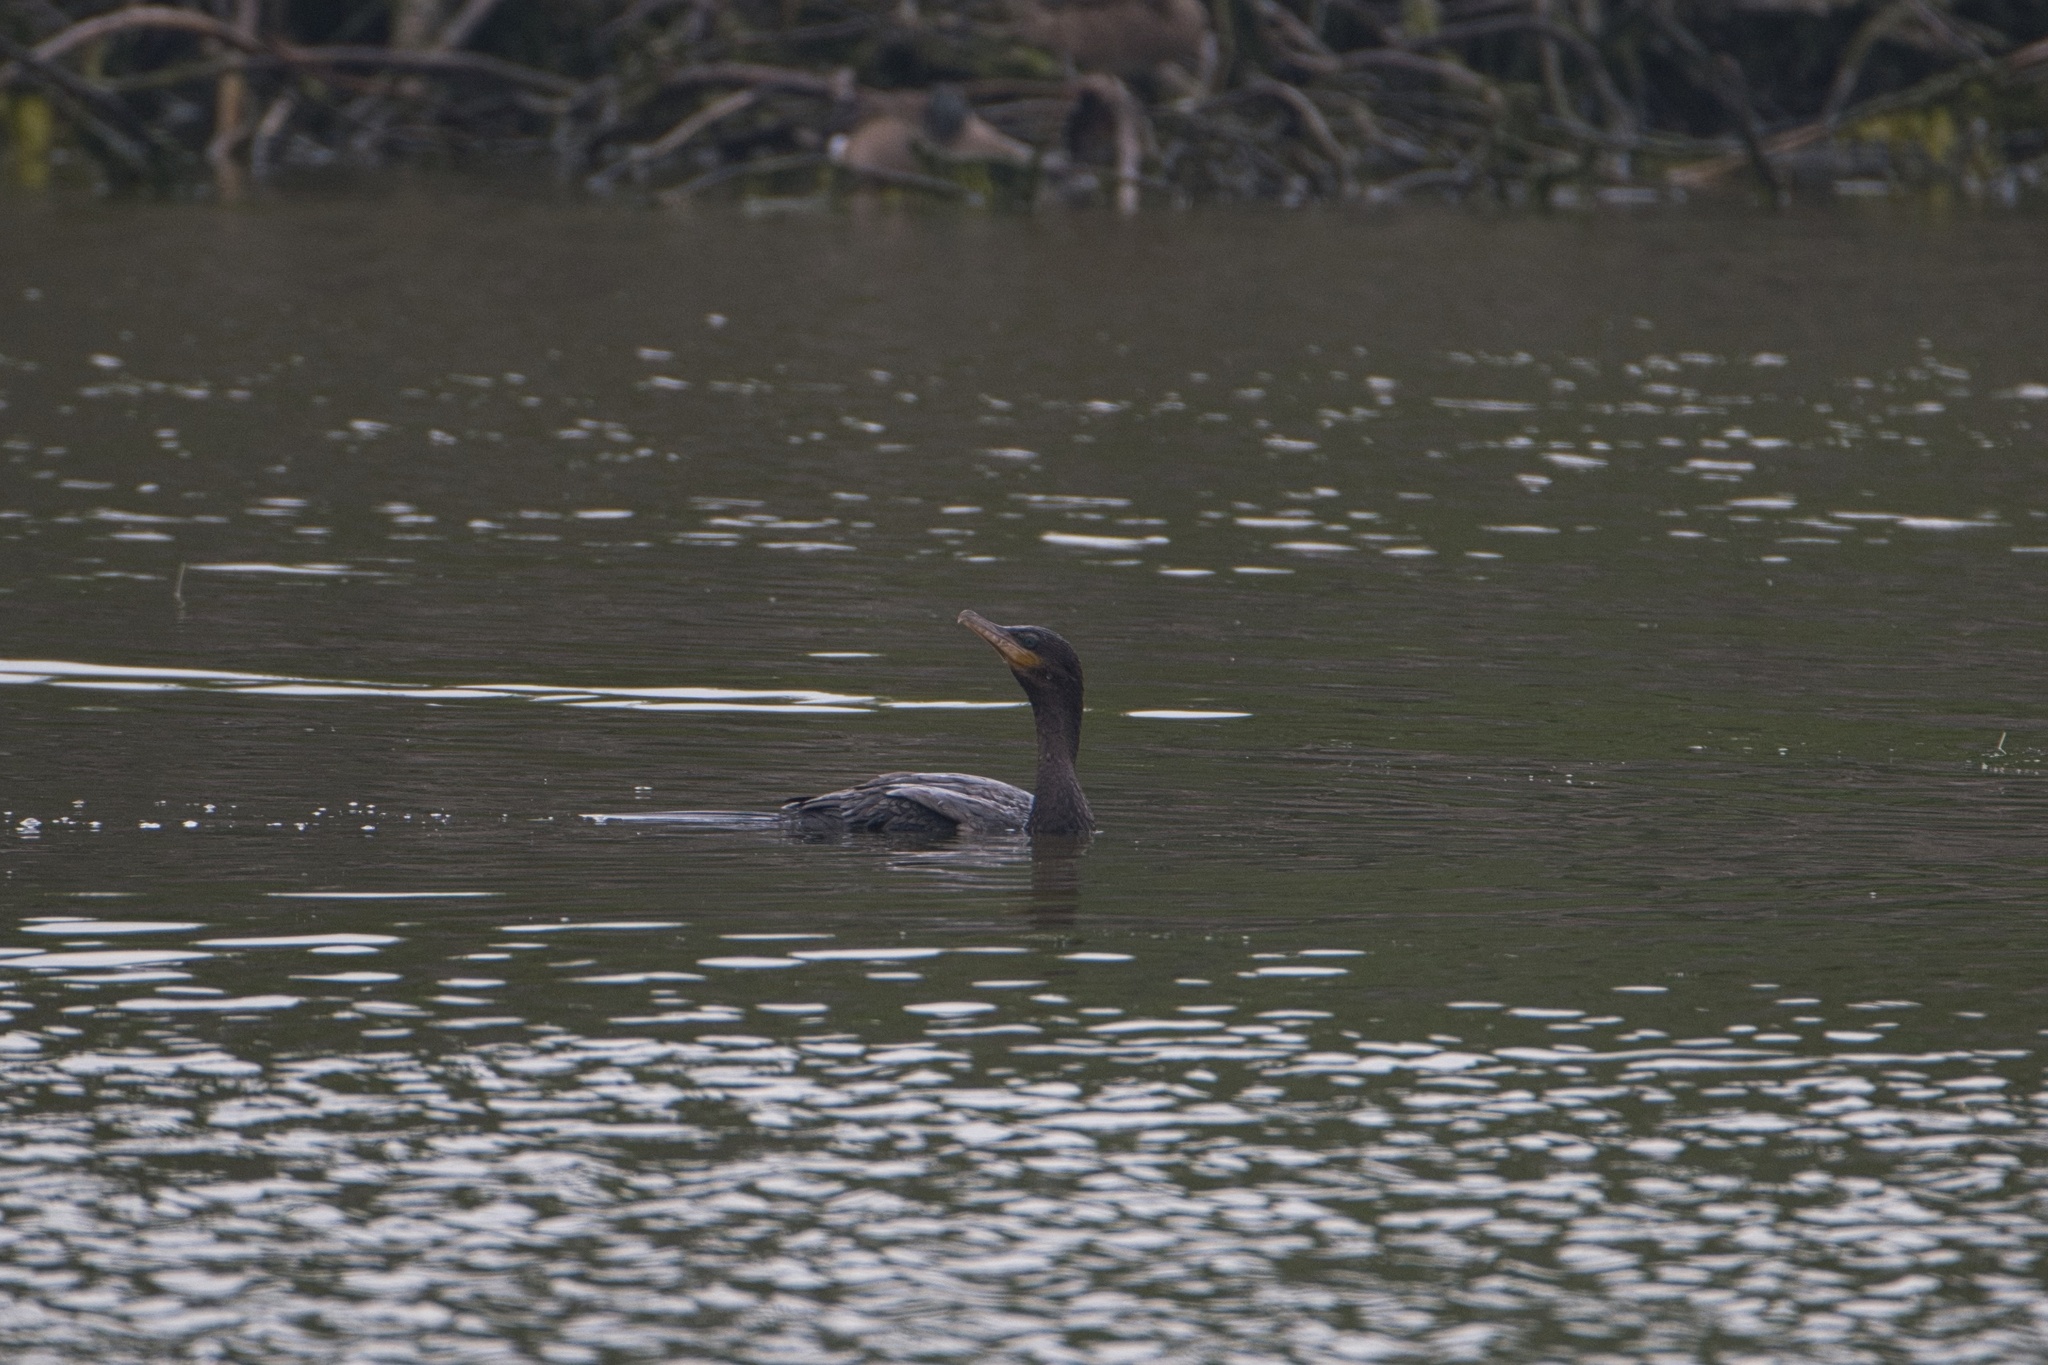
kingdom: Animalia
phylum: Chordata
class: Aves
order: Suliformes
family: Phalacrocoracidae
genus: Phalacrocorax
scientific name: Phalacrocorax brasilianus
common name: Neotropic cormorant
